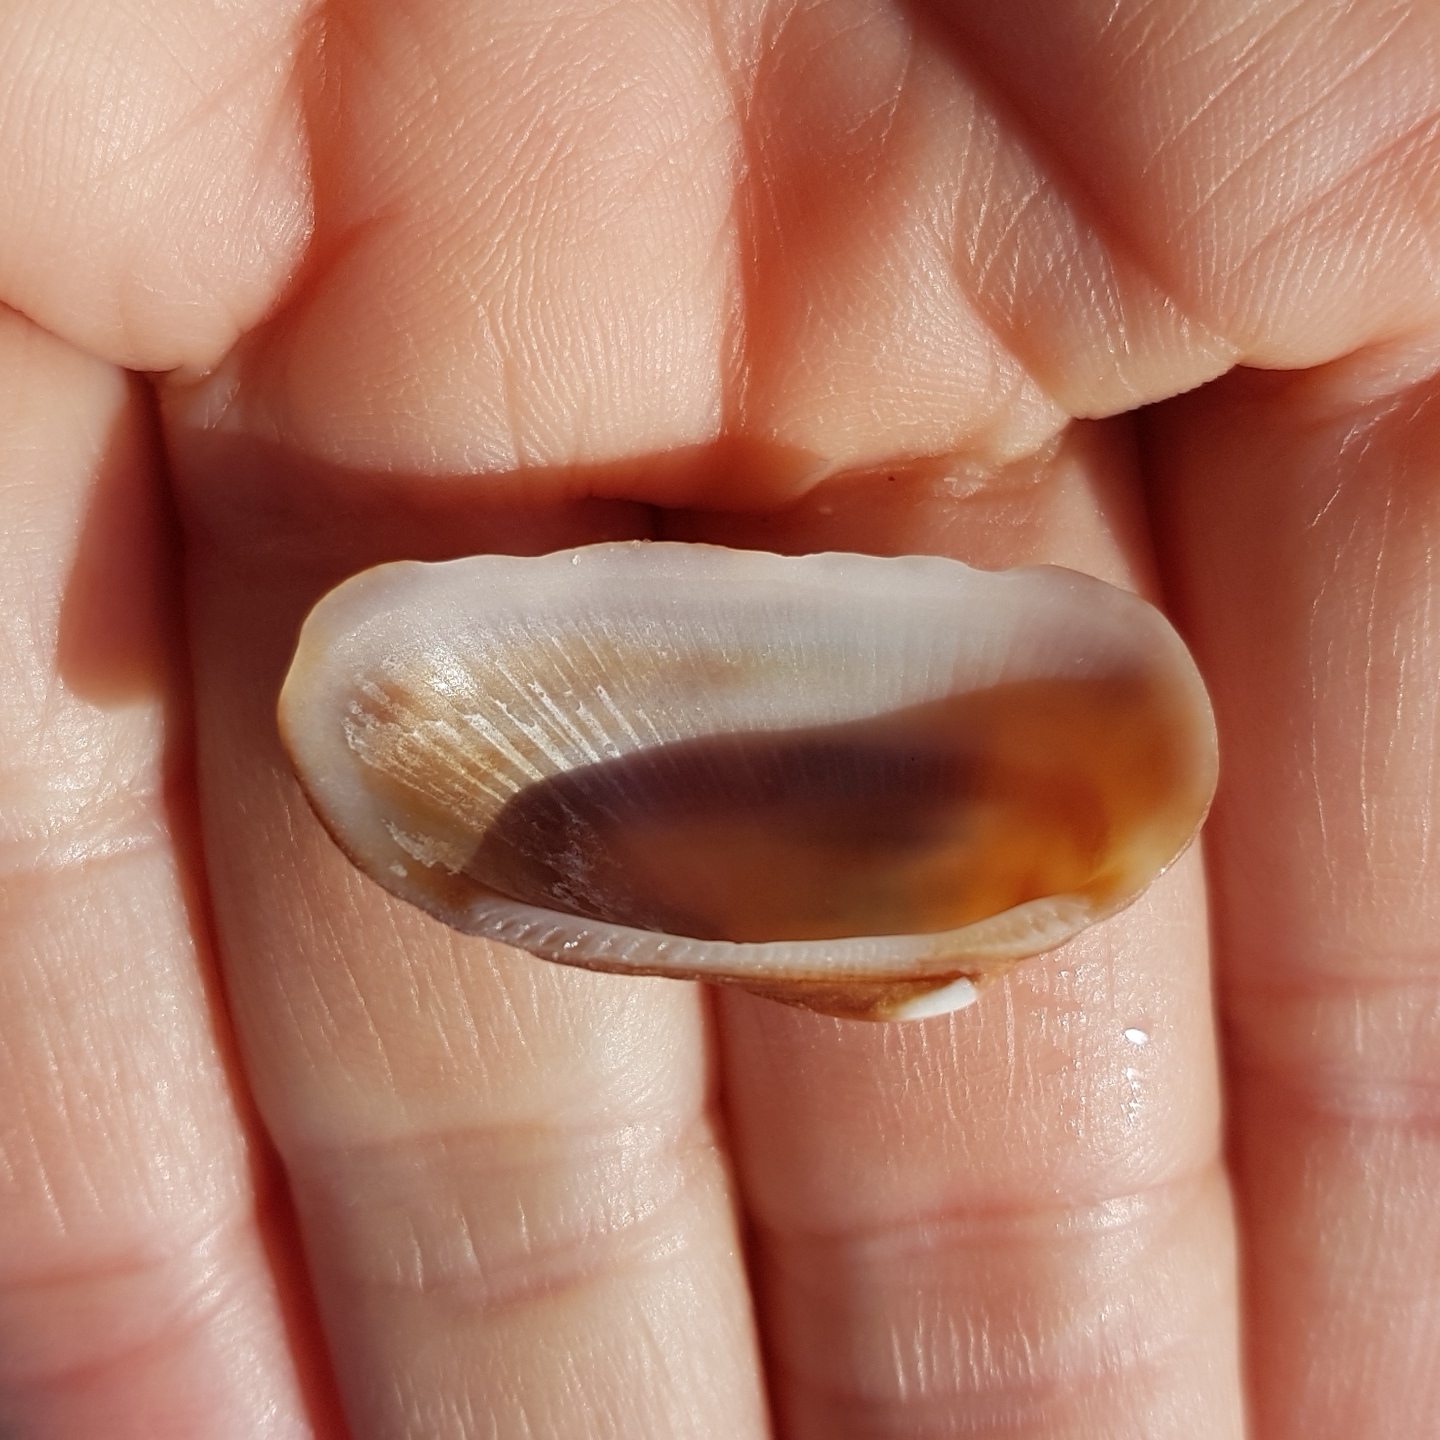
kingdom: Animalia
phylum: Mollusca
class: Bivalvia
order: Arcida
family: Arcidae
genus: Barbatia
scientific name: Barbatia barbata
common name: Bearded ark
